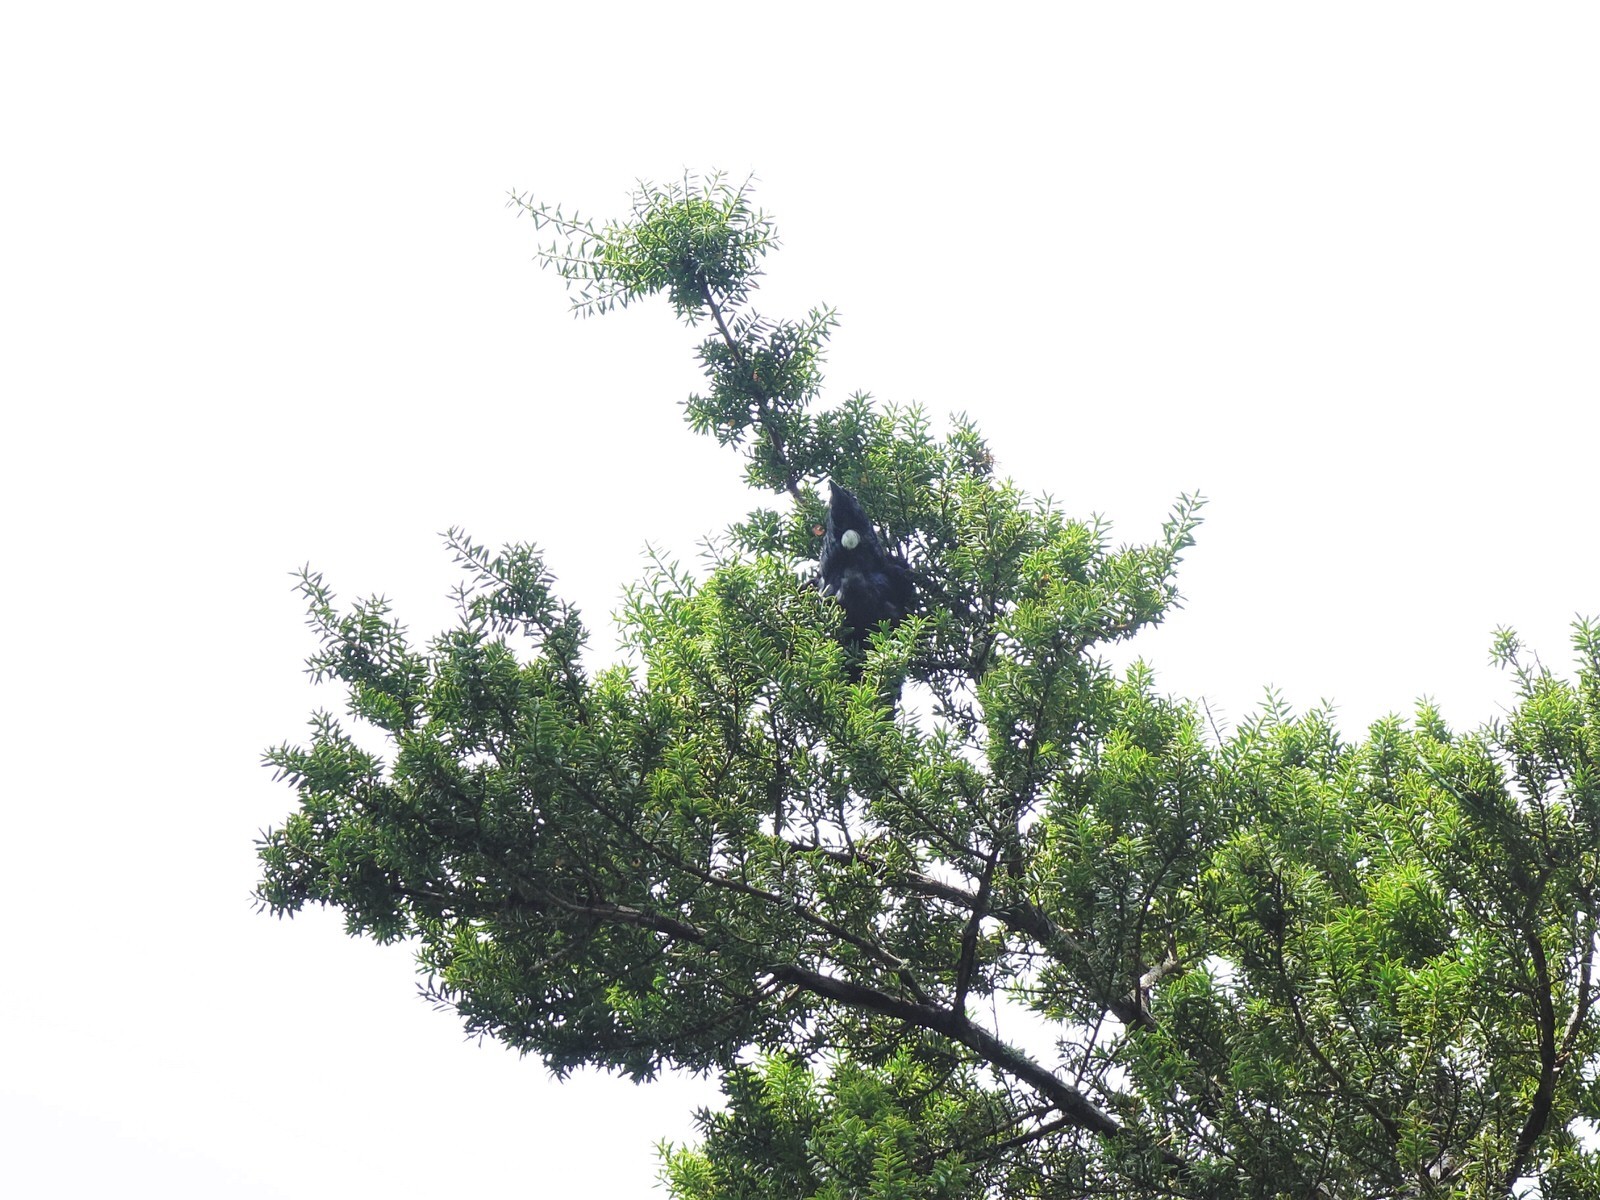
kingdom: Animalia
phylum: Chordata
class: Aves
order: Passeriformes
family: Meliphagidae
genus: Prosthemadera
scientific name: Prosthemadera novaeseelandiae
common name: Tui
